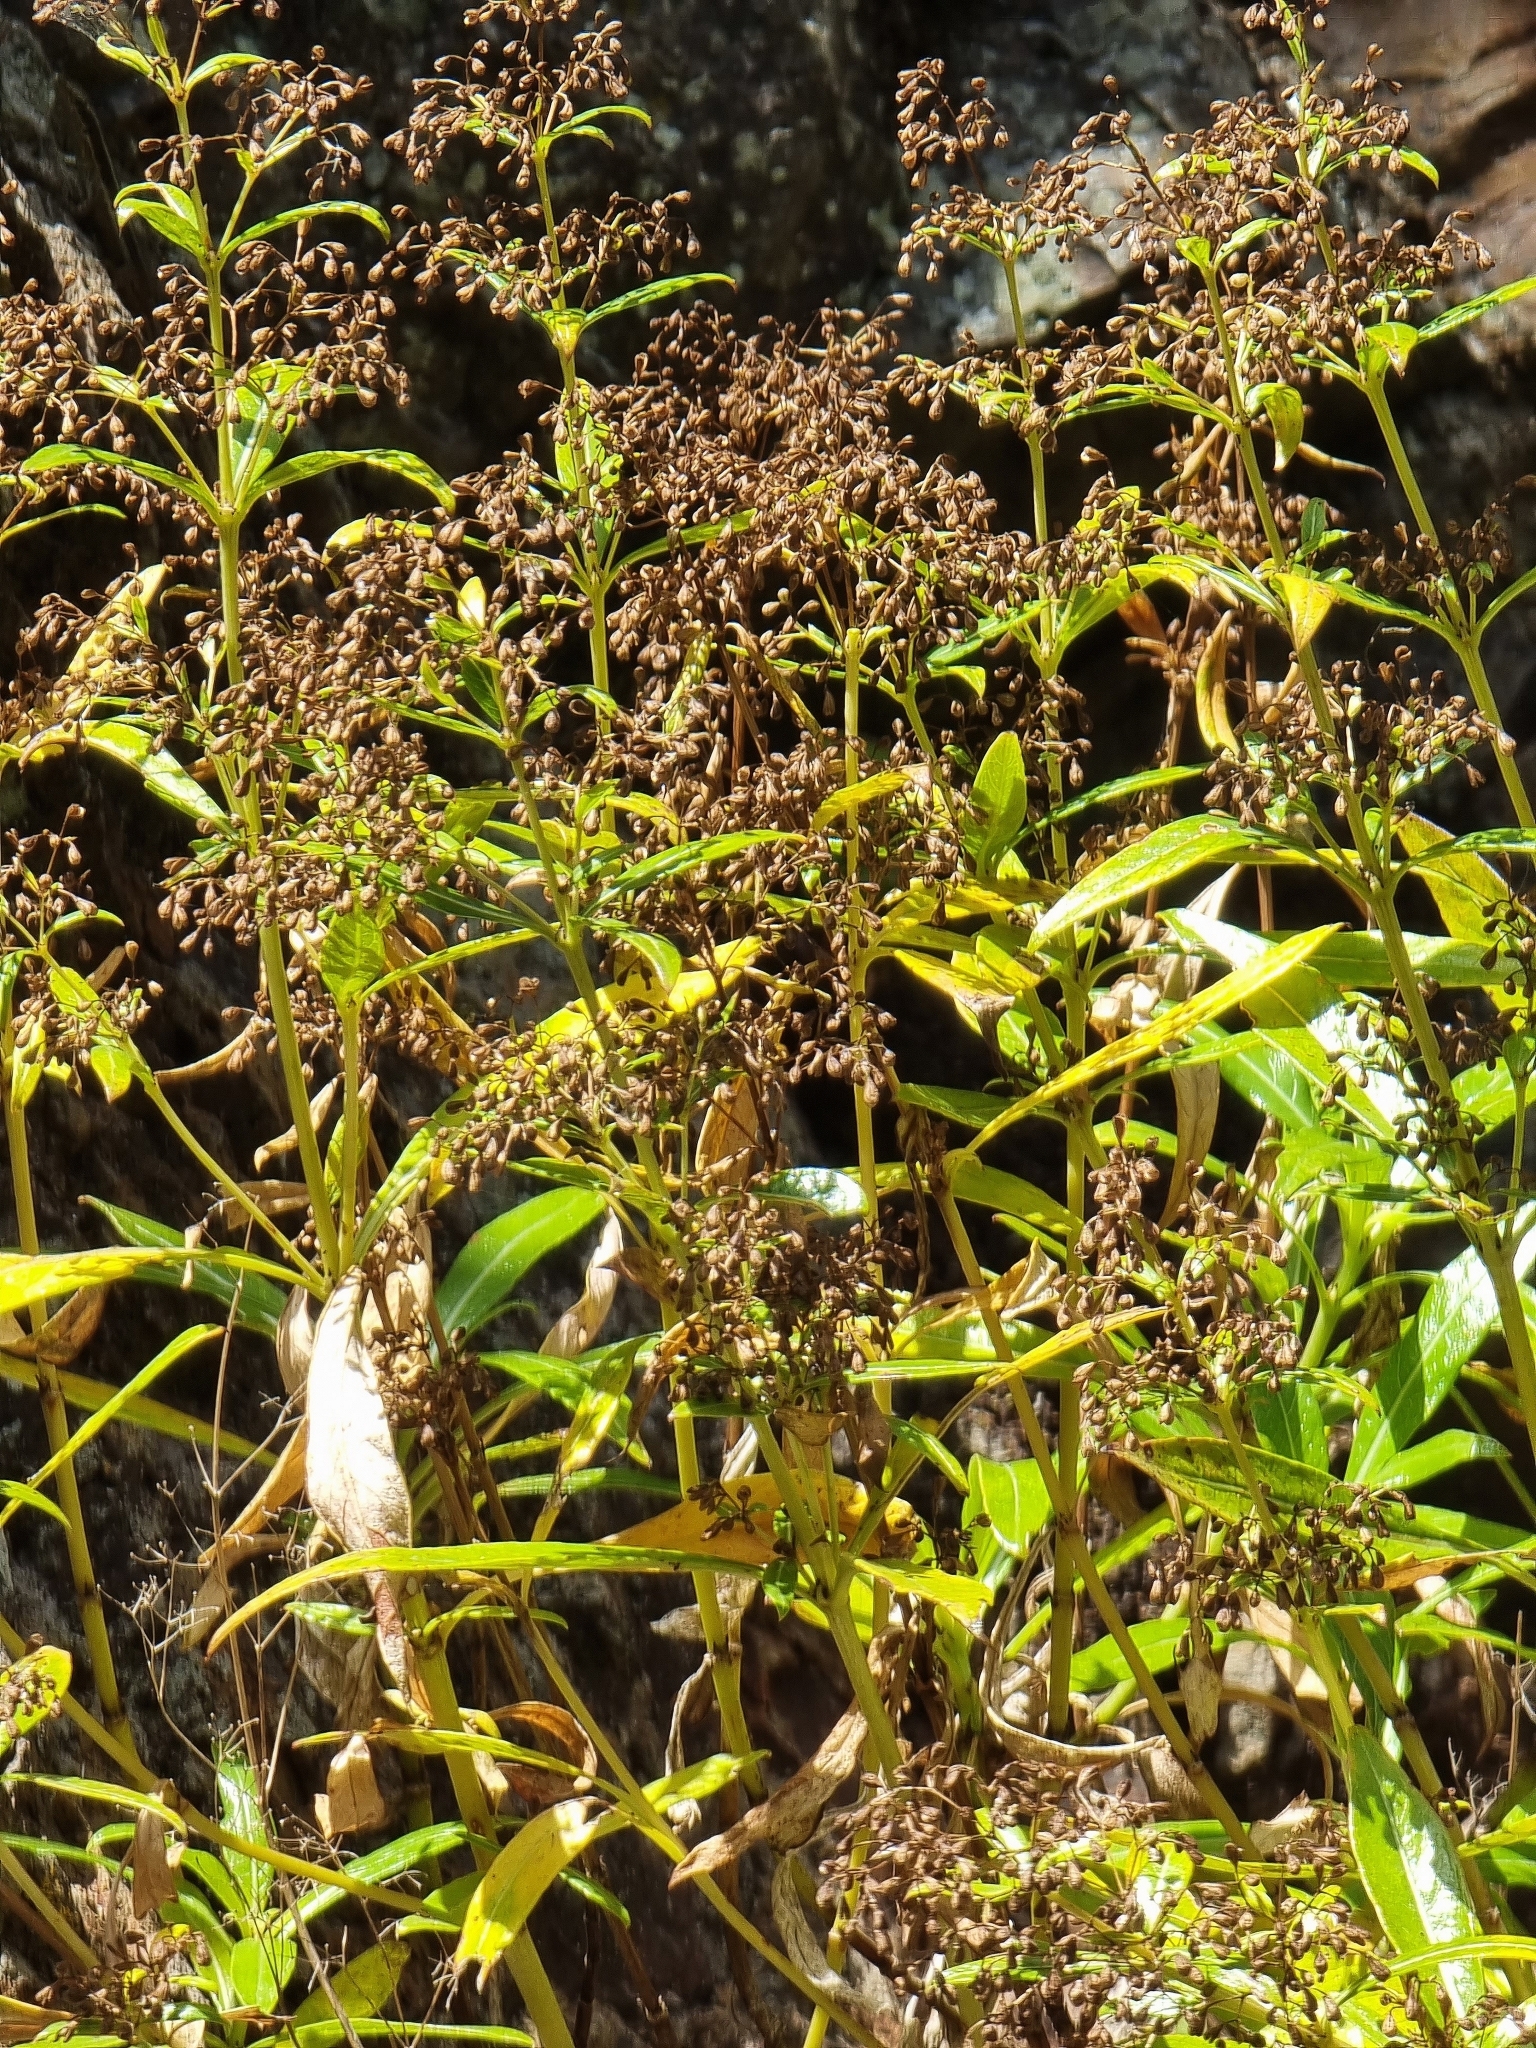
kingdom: Plantae
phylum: Tracheophyta
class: Magnoliopsida
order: Gentianales
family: Rubiaceae
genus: Phyllis
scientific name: Phyllis nobla
